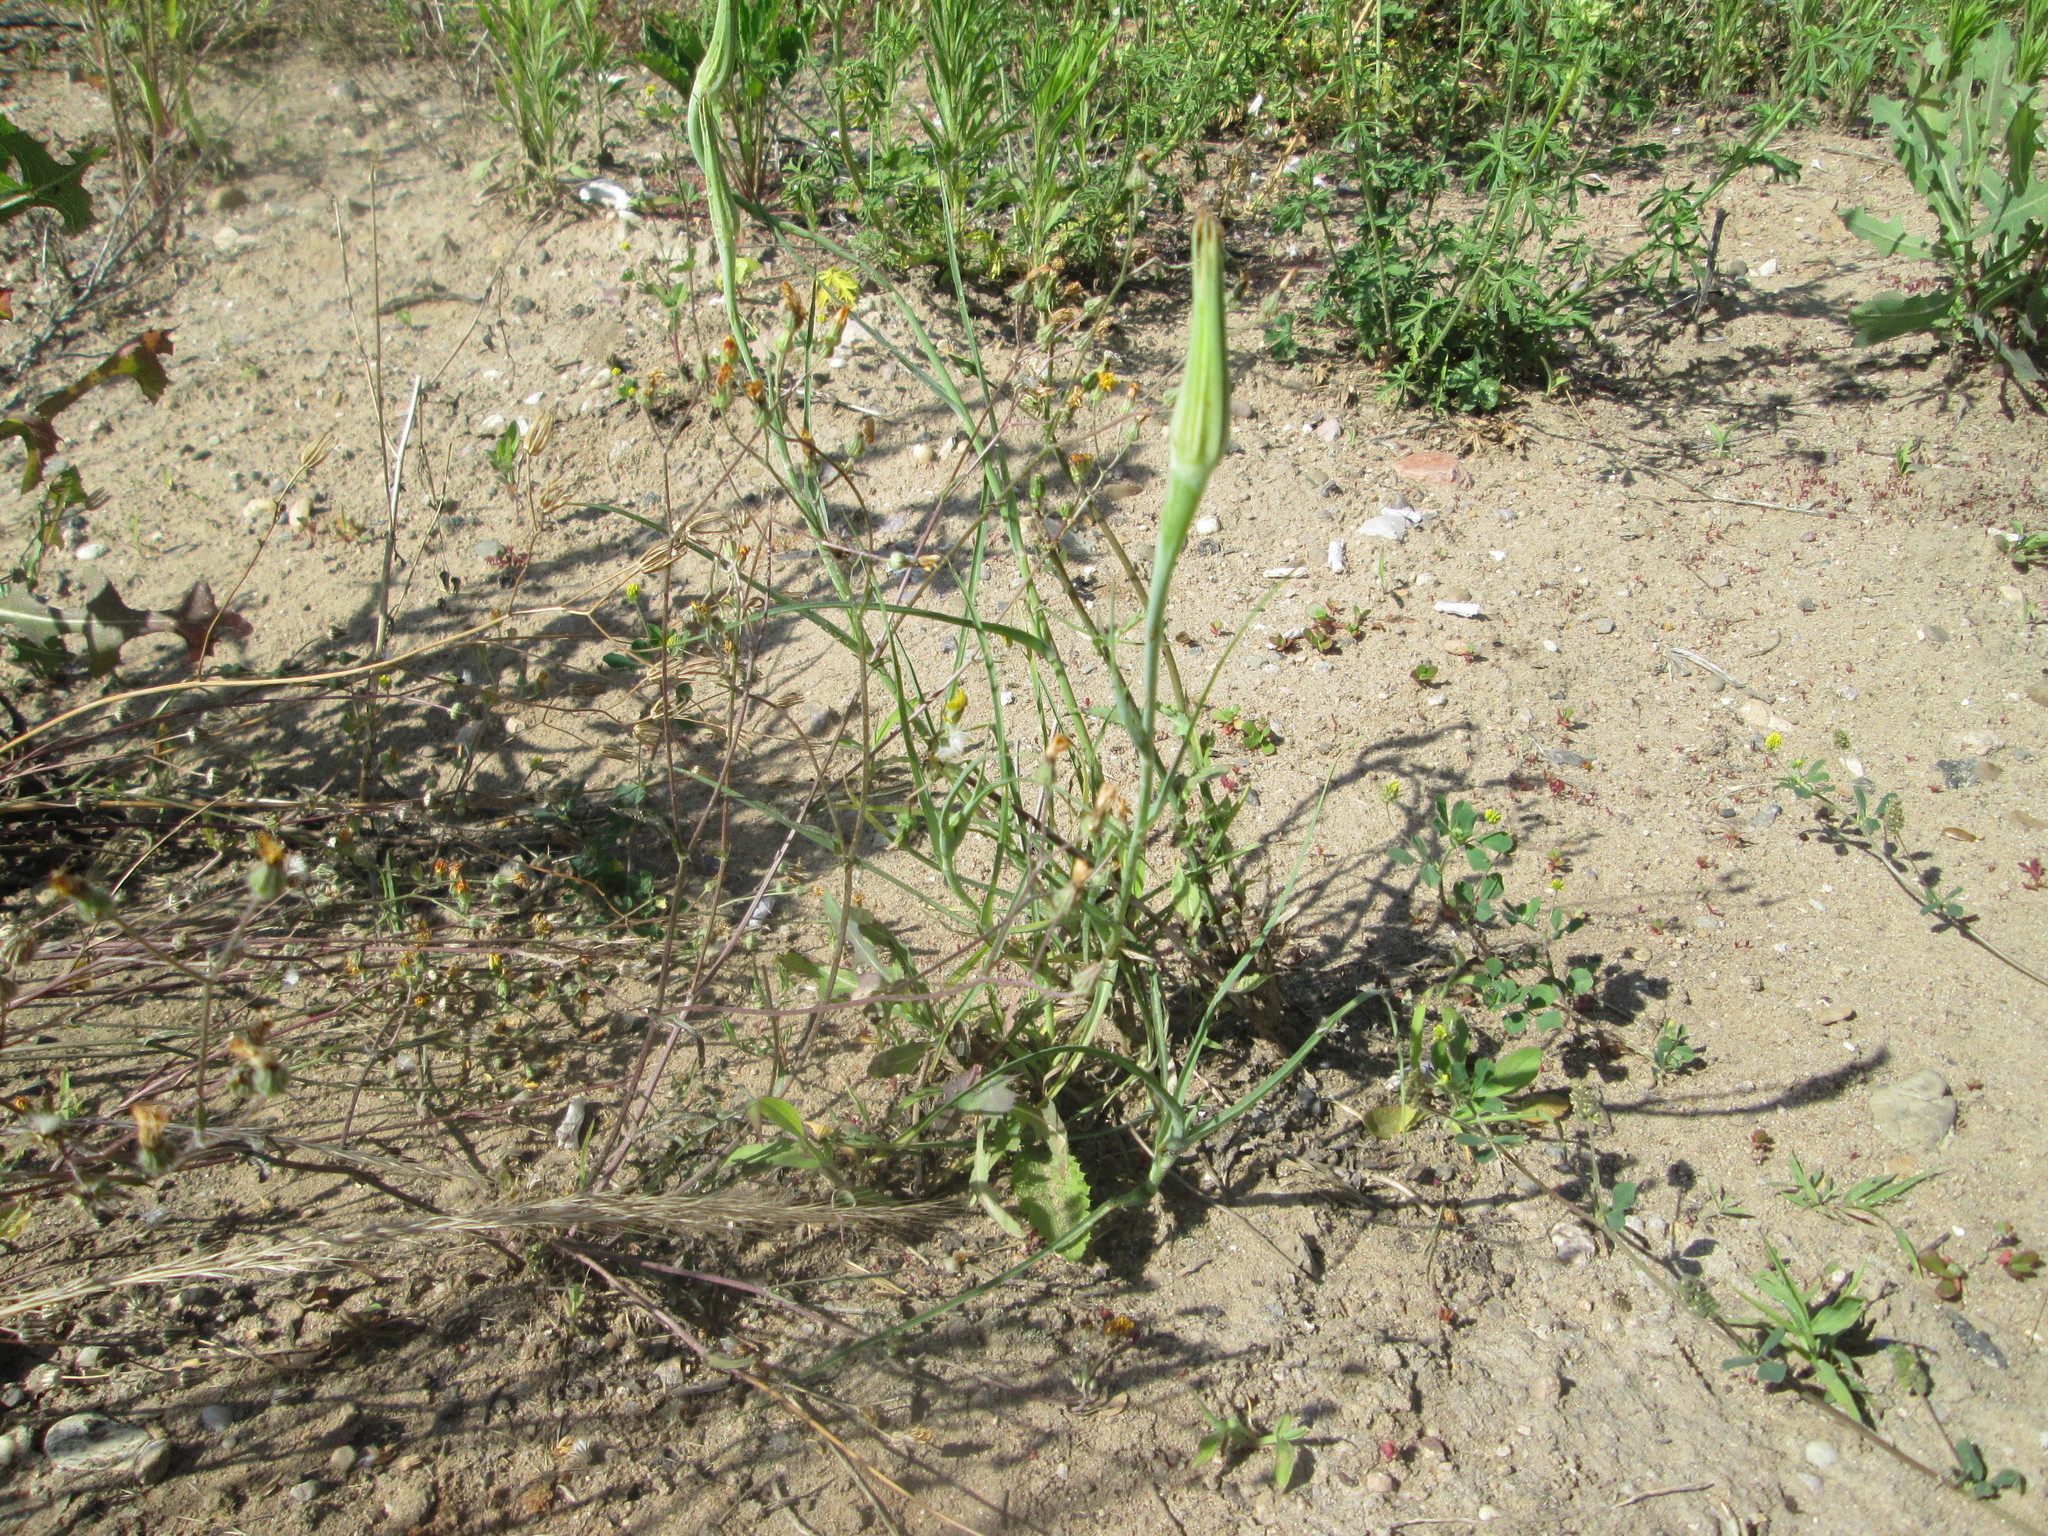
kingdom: Plantae
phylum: Tracheophyta
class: Magnoliopsida
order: Asterales
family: Asteraceae
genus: Tragopogon
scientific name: Tragopogon dubius
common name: Yellow salsify
